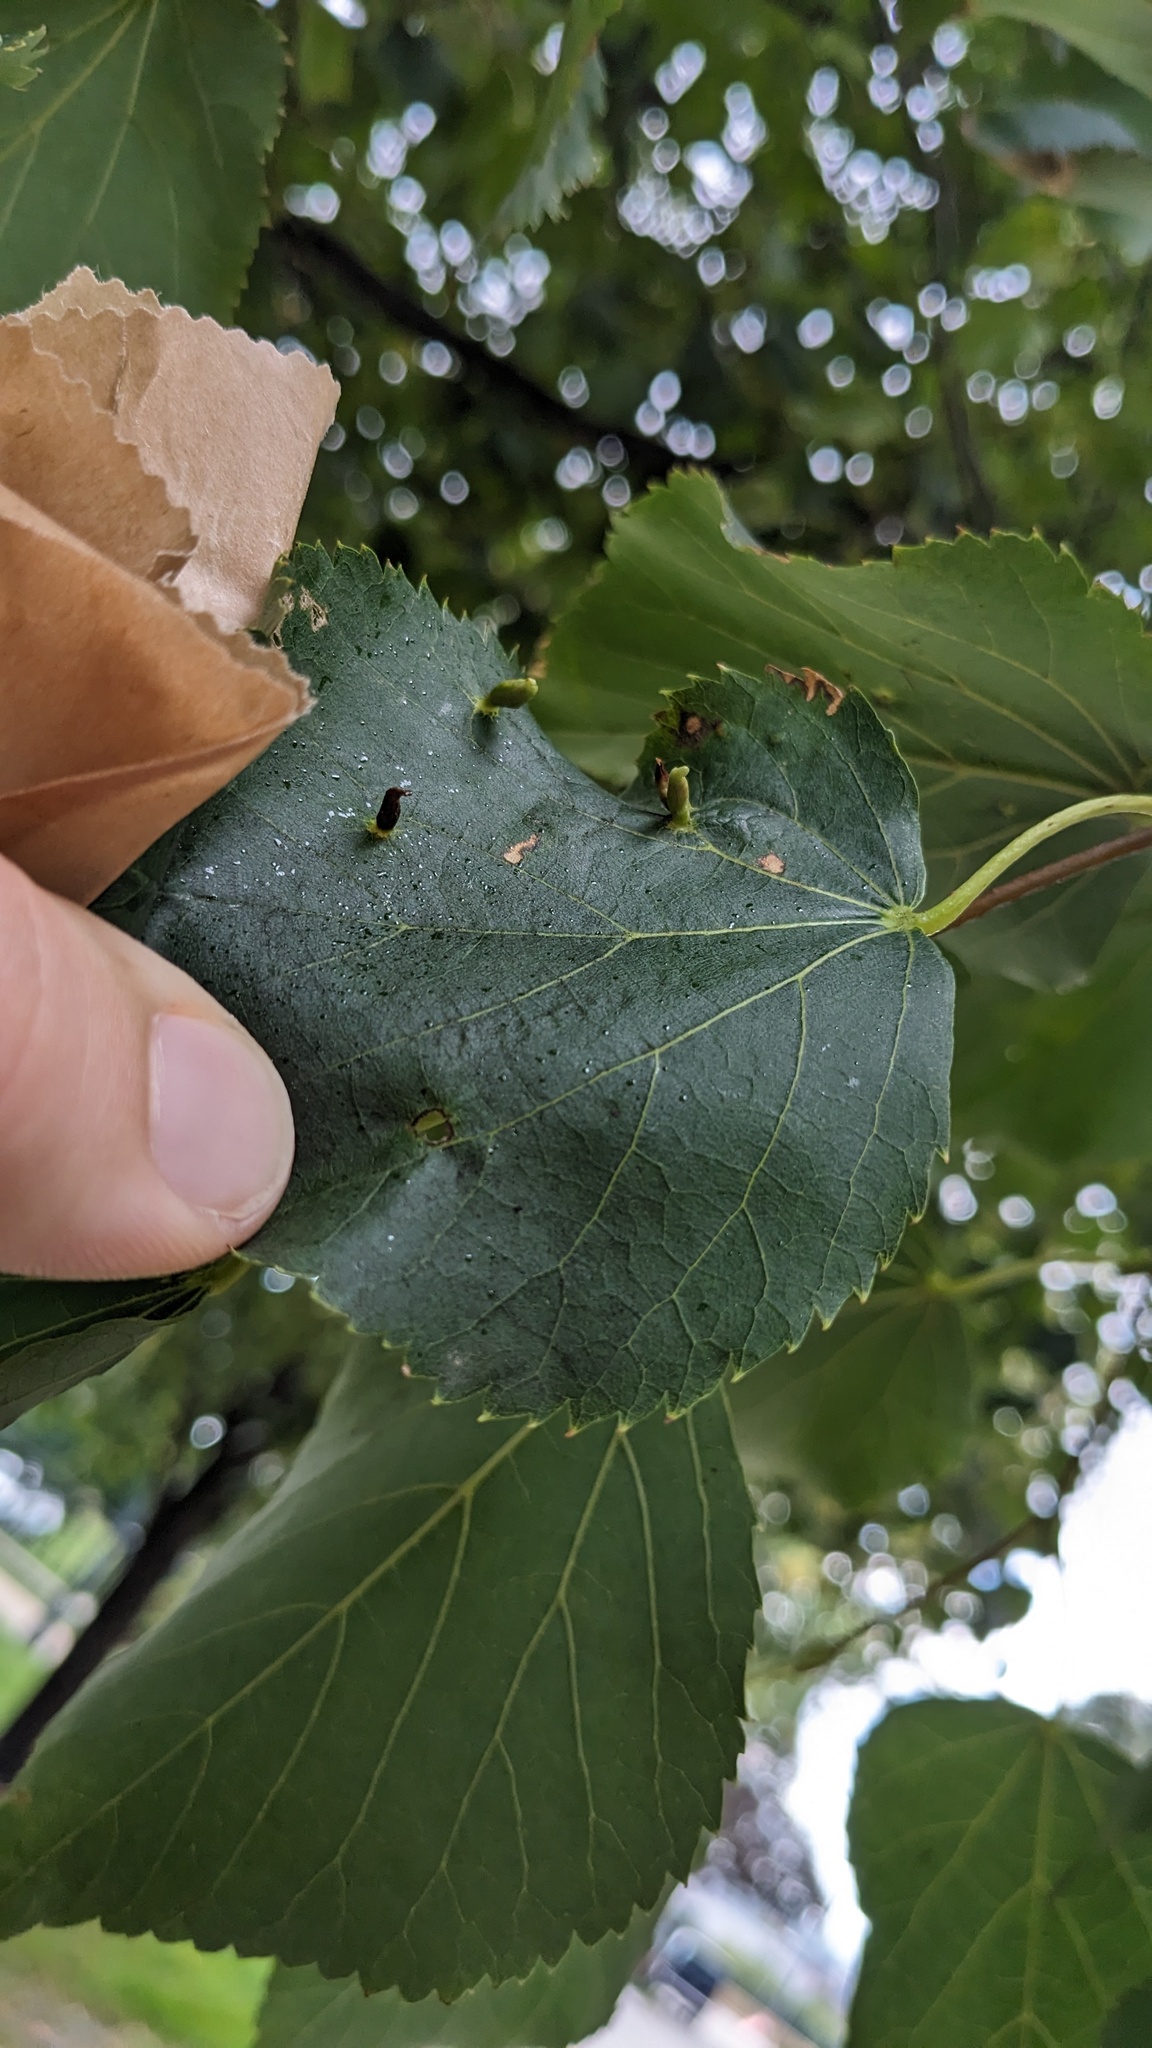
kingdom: Animalia
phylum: Arthropoda
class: Arachnida
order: Trombidiformes
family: Eriophyidae
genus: Eriophyes
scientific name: Eriophyes tiliae
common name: Red nail gall mite
